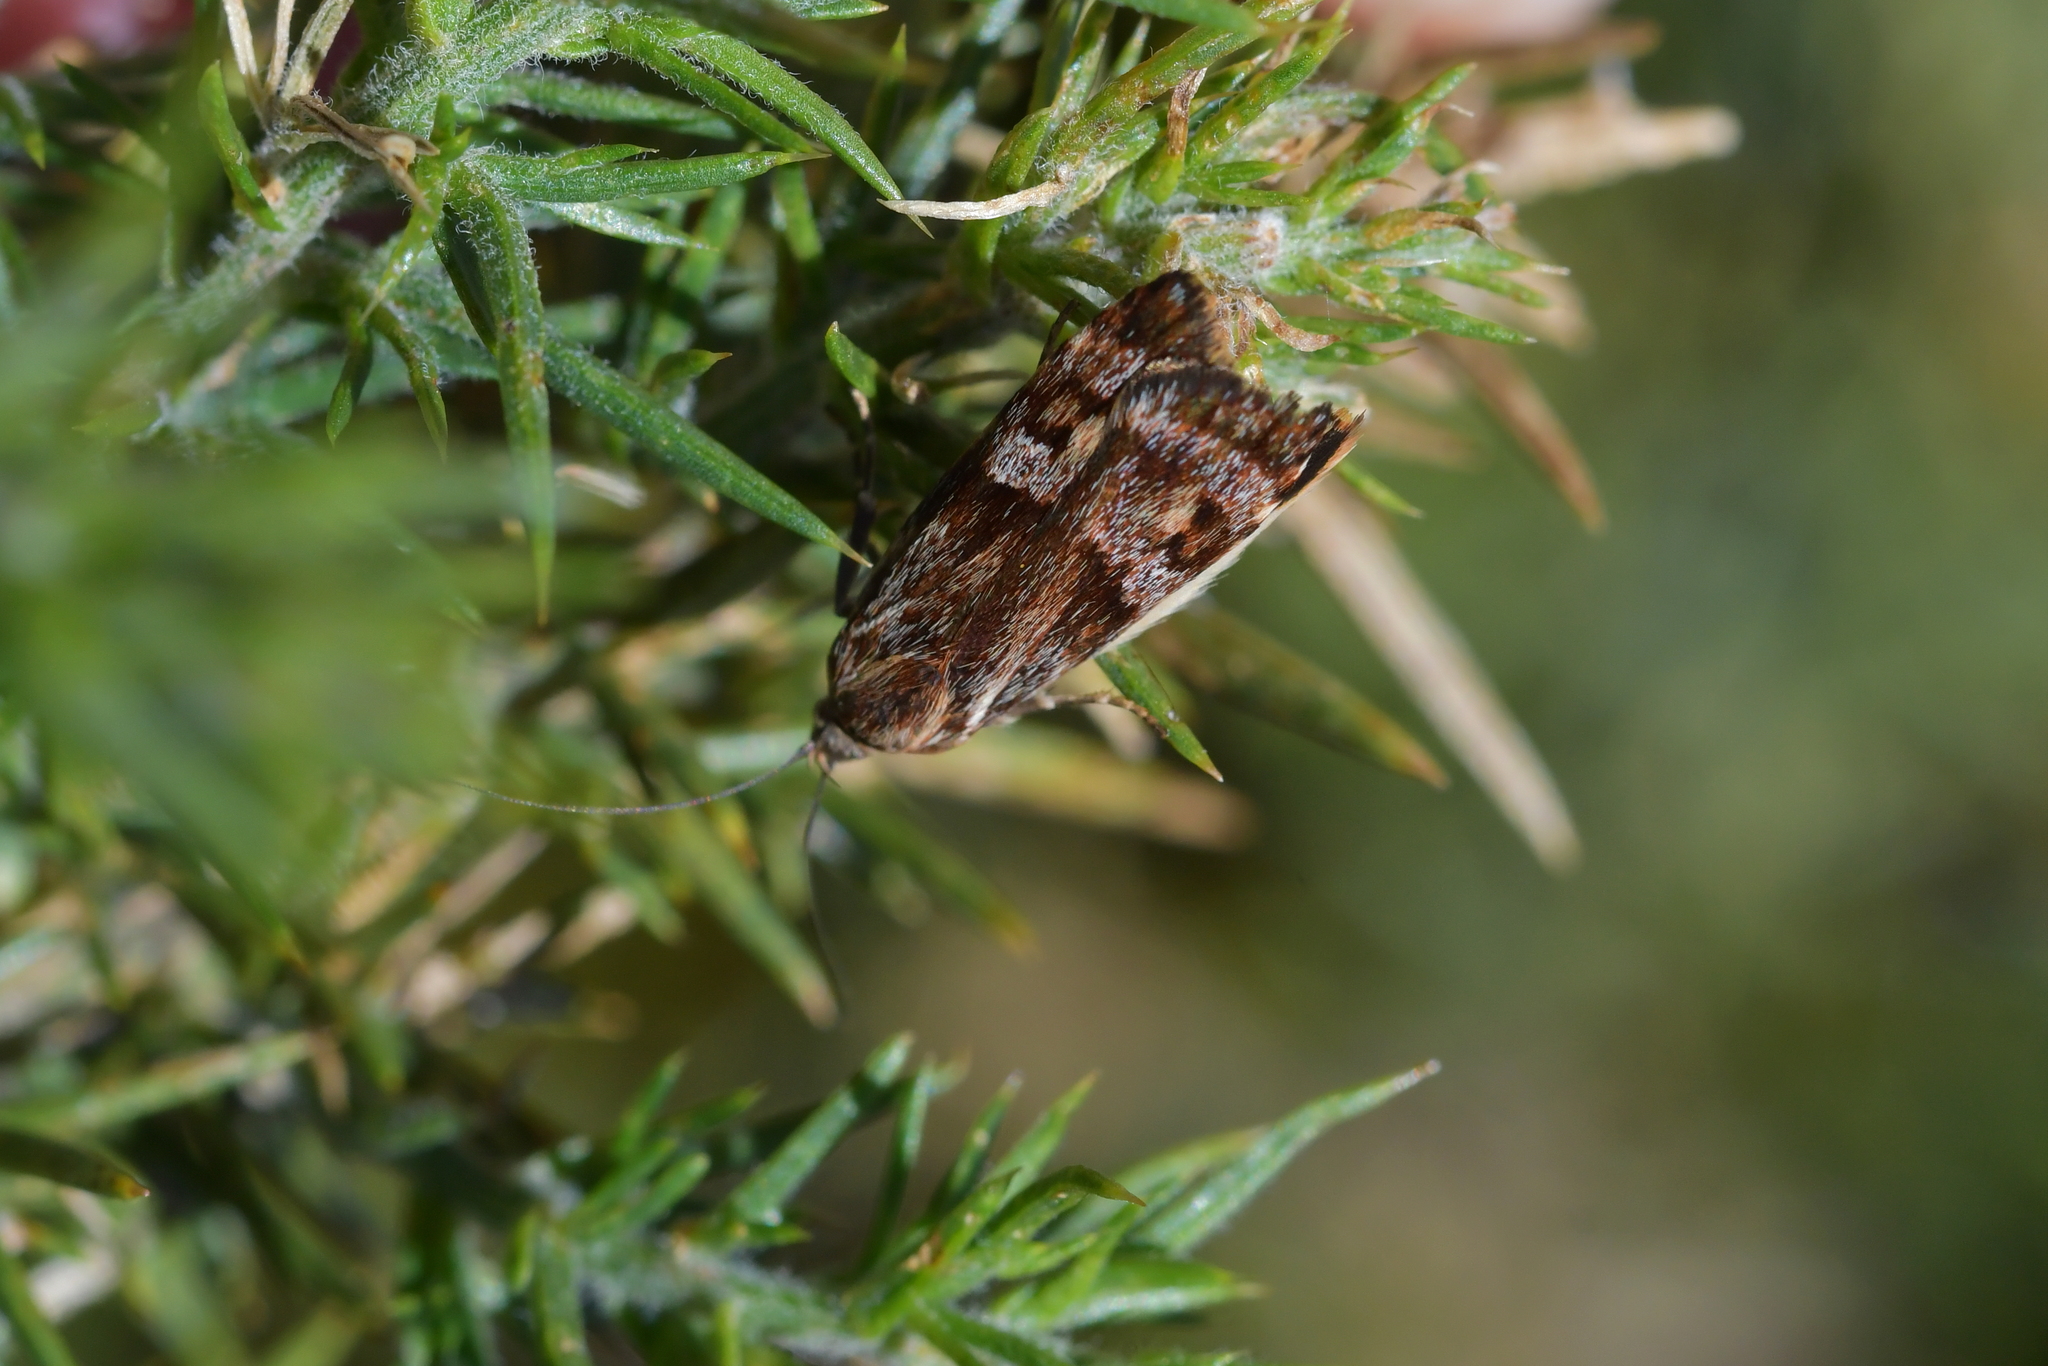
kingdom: Animalia
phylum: Arthropoda
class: Insecta
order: Lepidoptera
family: Oecophoridae
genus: Hierodoris
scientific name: Hierodoris
